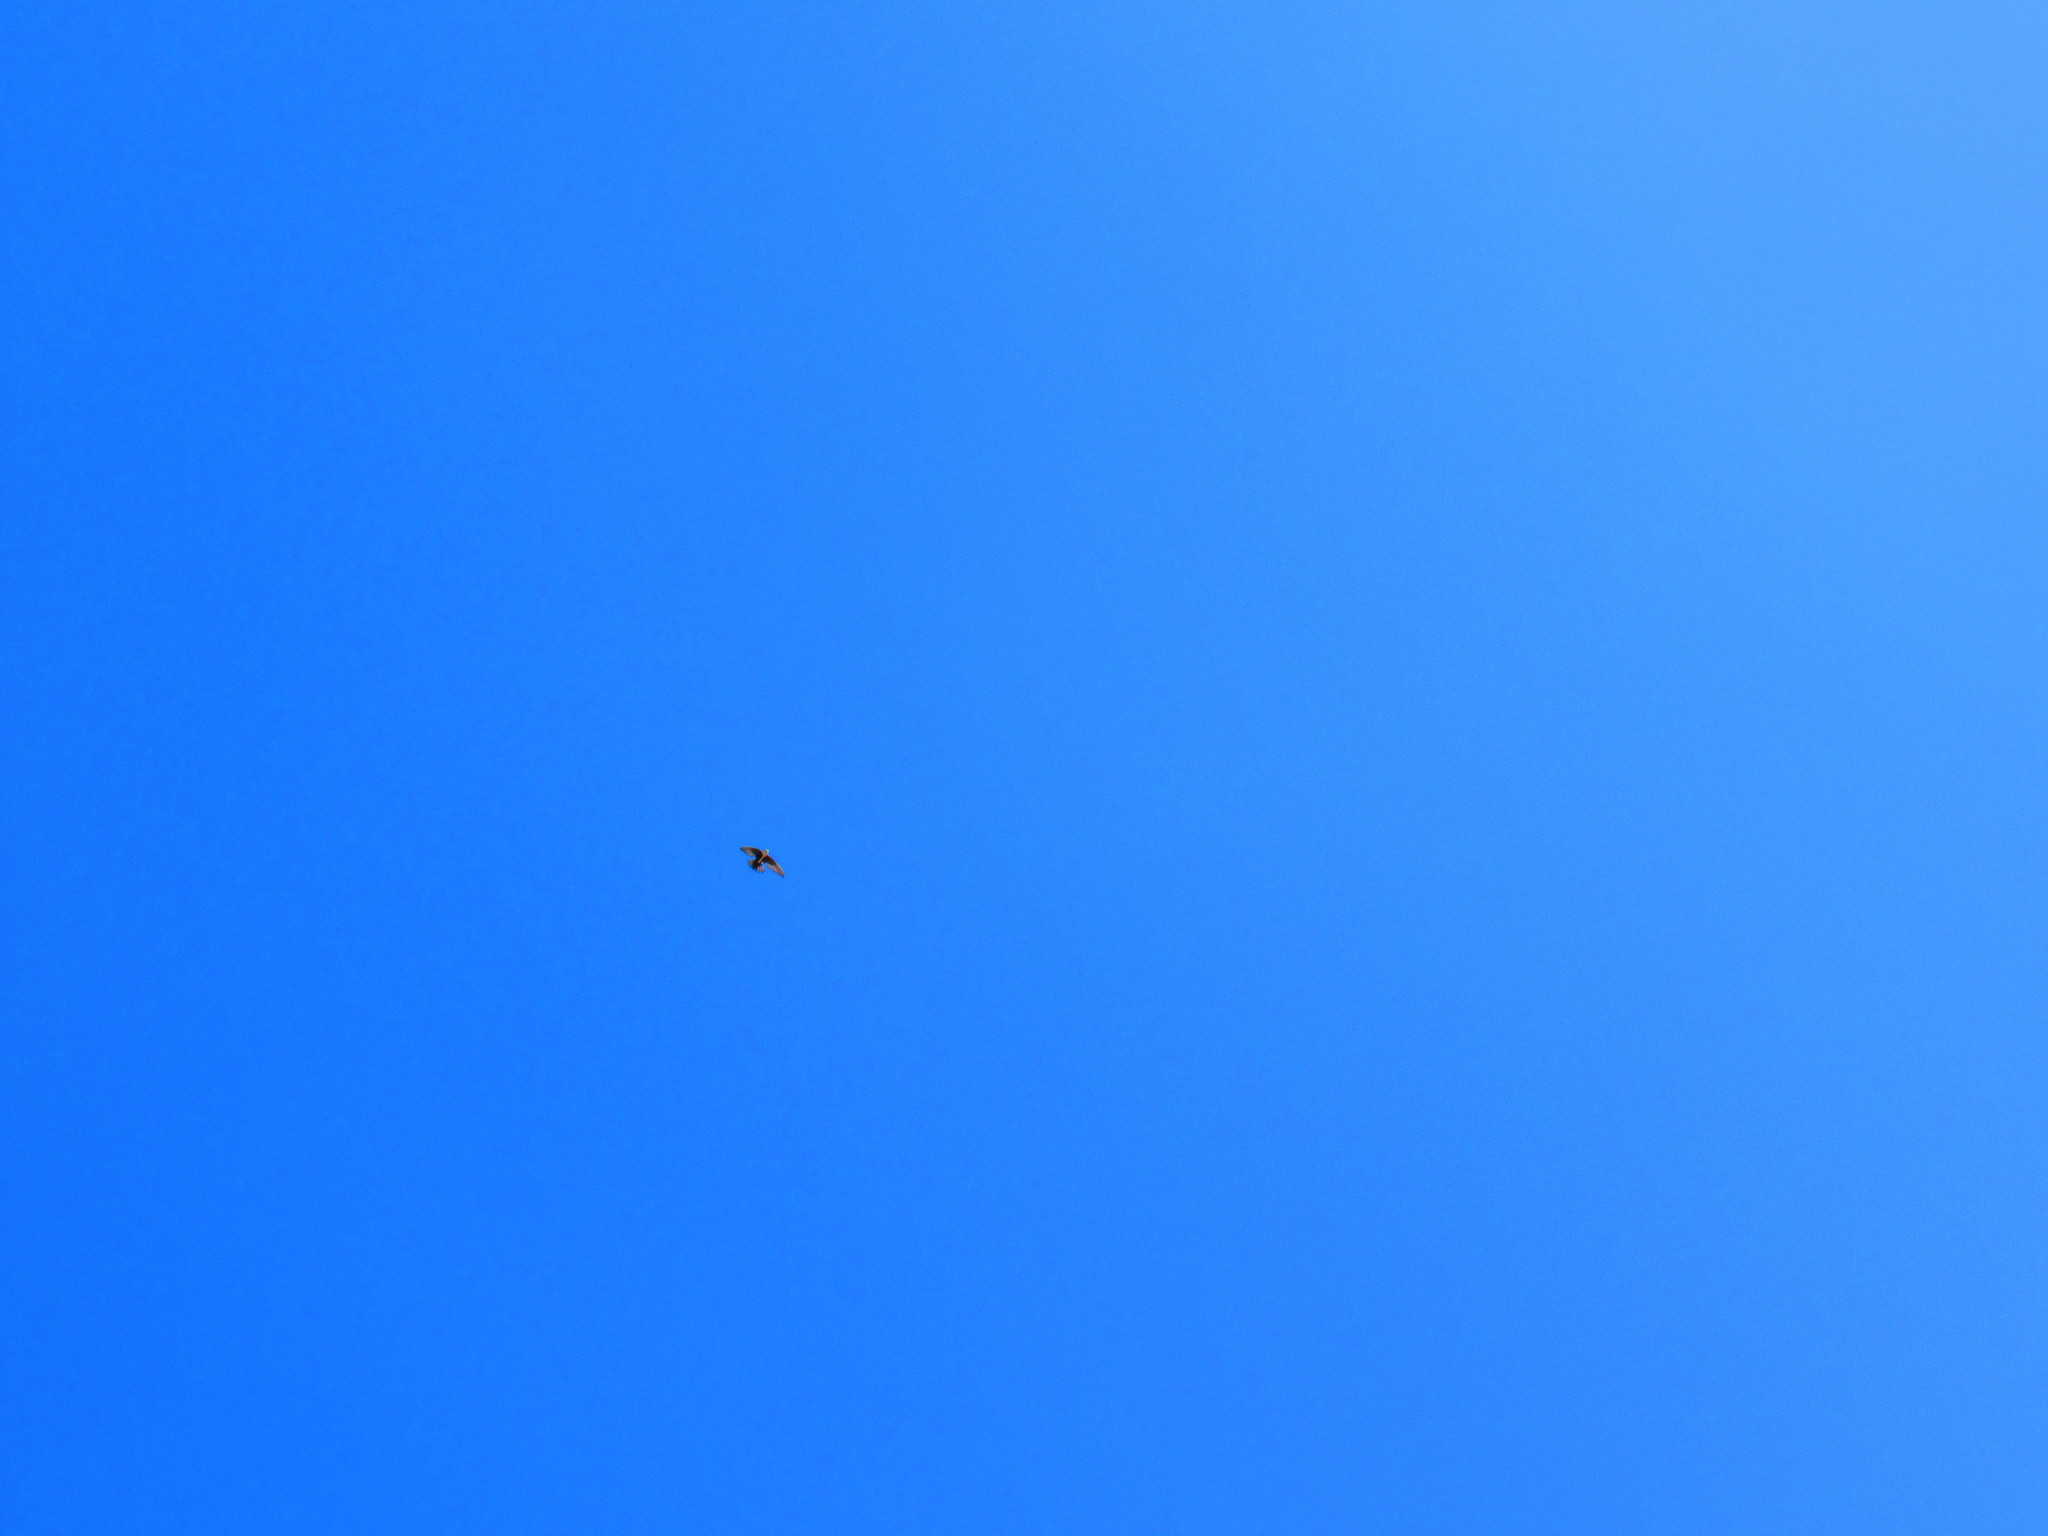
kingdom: Animalia
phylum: Chordata
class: Aves
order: Apodiformes
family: Apodidae
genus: Aeronautes
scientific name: Aeronautes saxatalis
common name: White-throated swift
